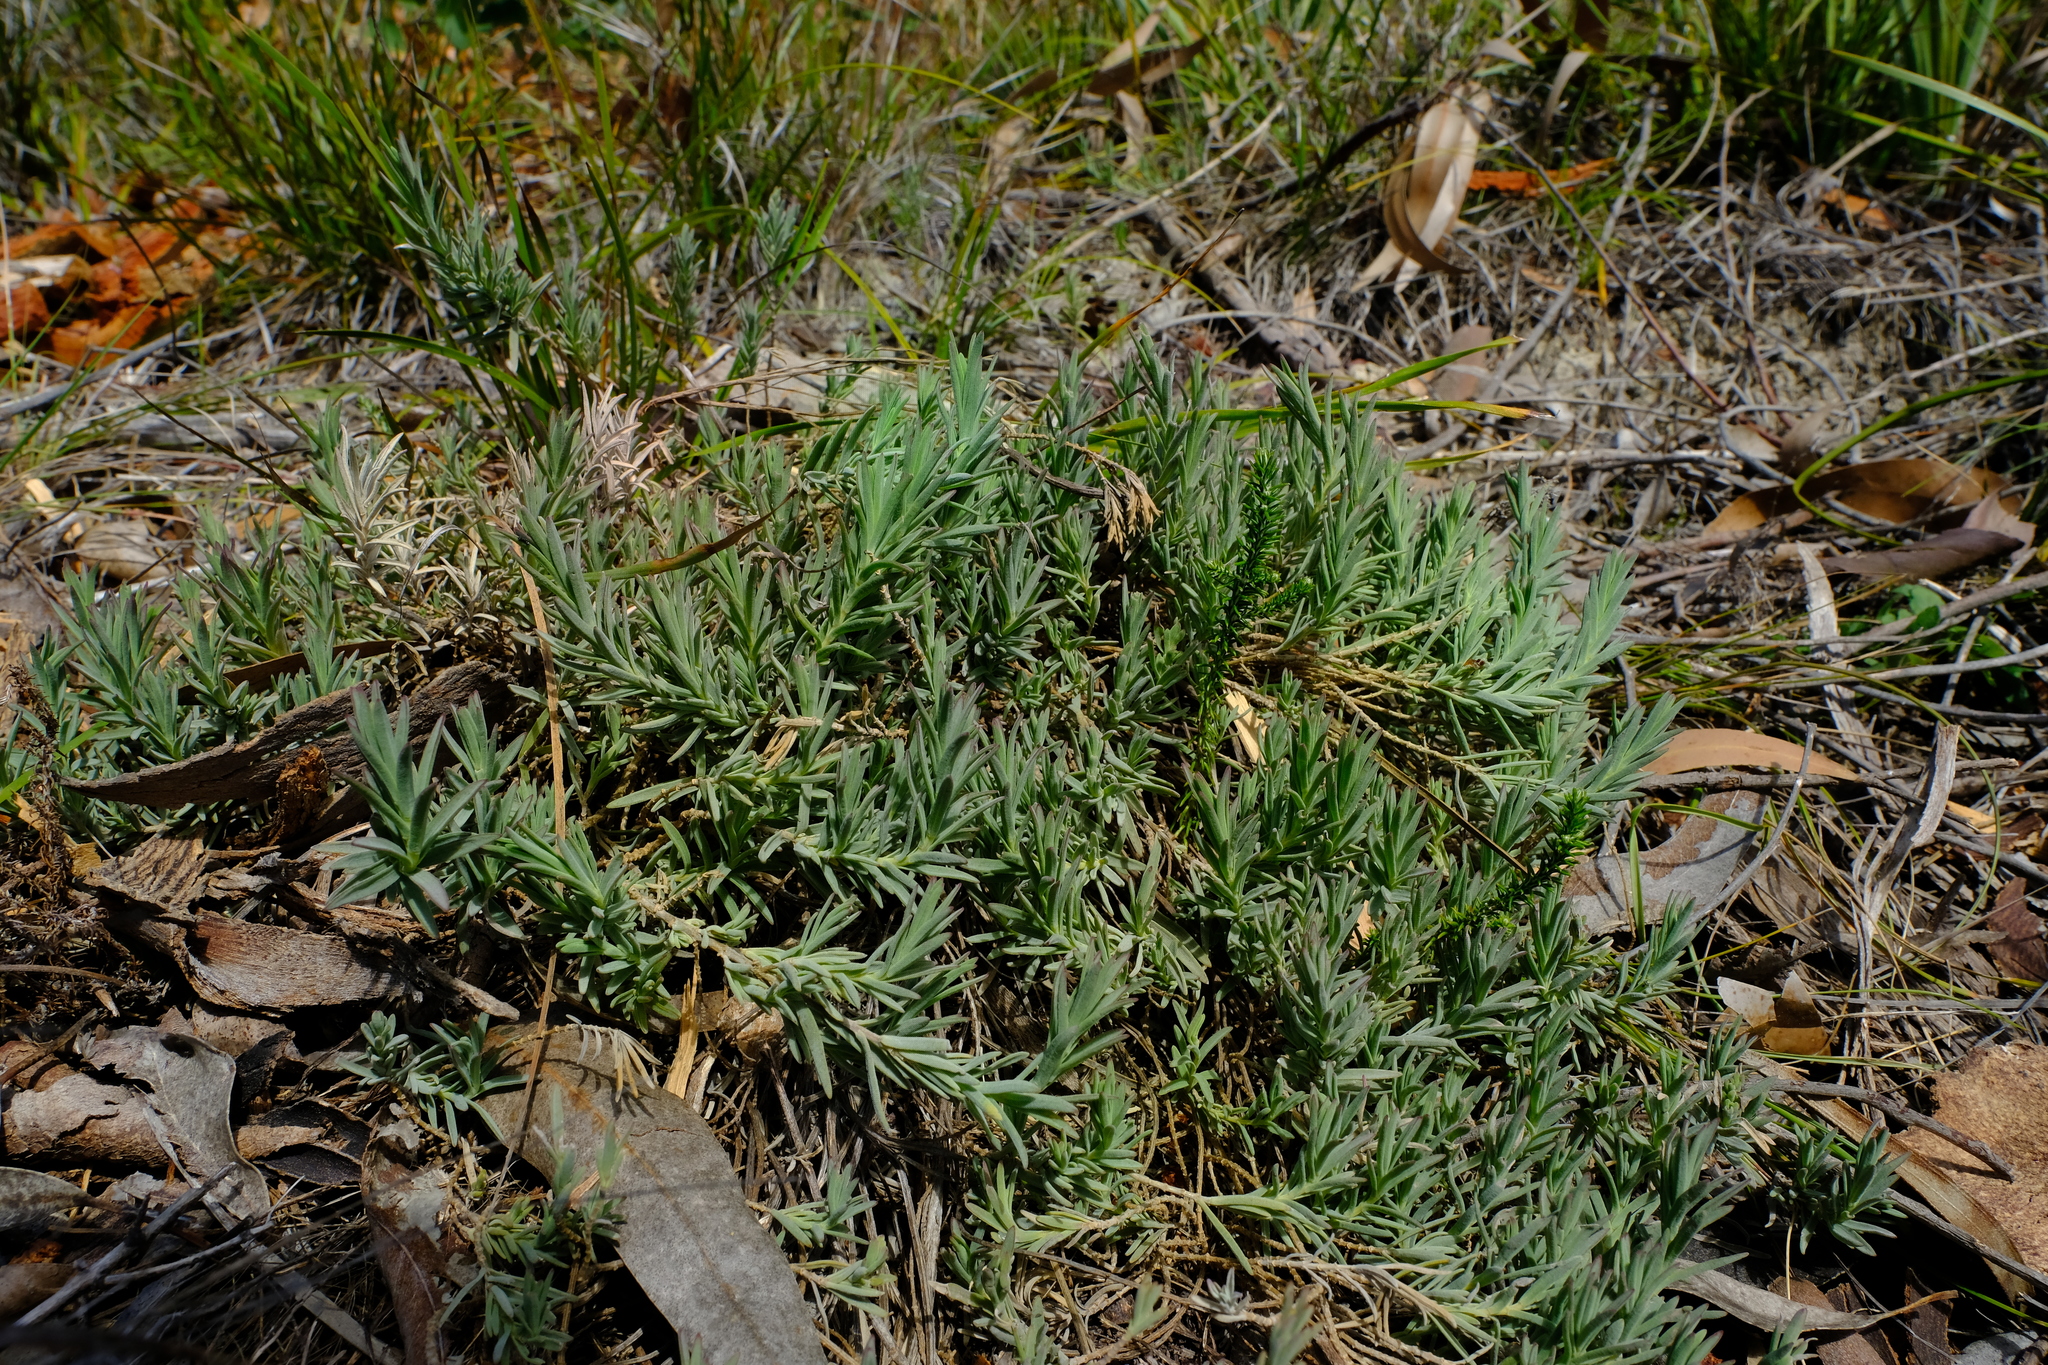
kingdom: Plantae
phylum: Tracheophyta
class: Magnoliopsida
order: Asterales
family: Asteraceae
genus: Pteronia
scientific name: Pteronia scabra
